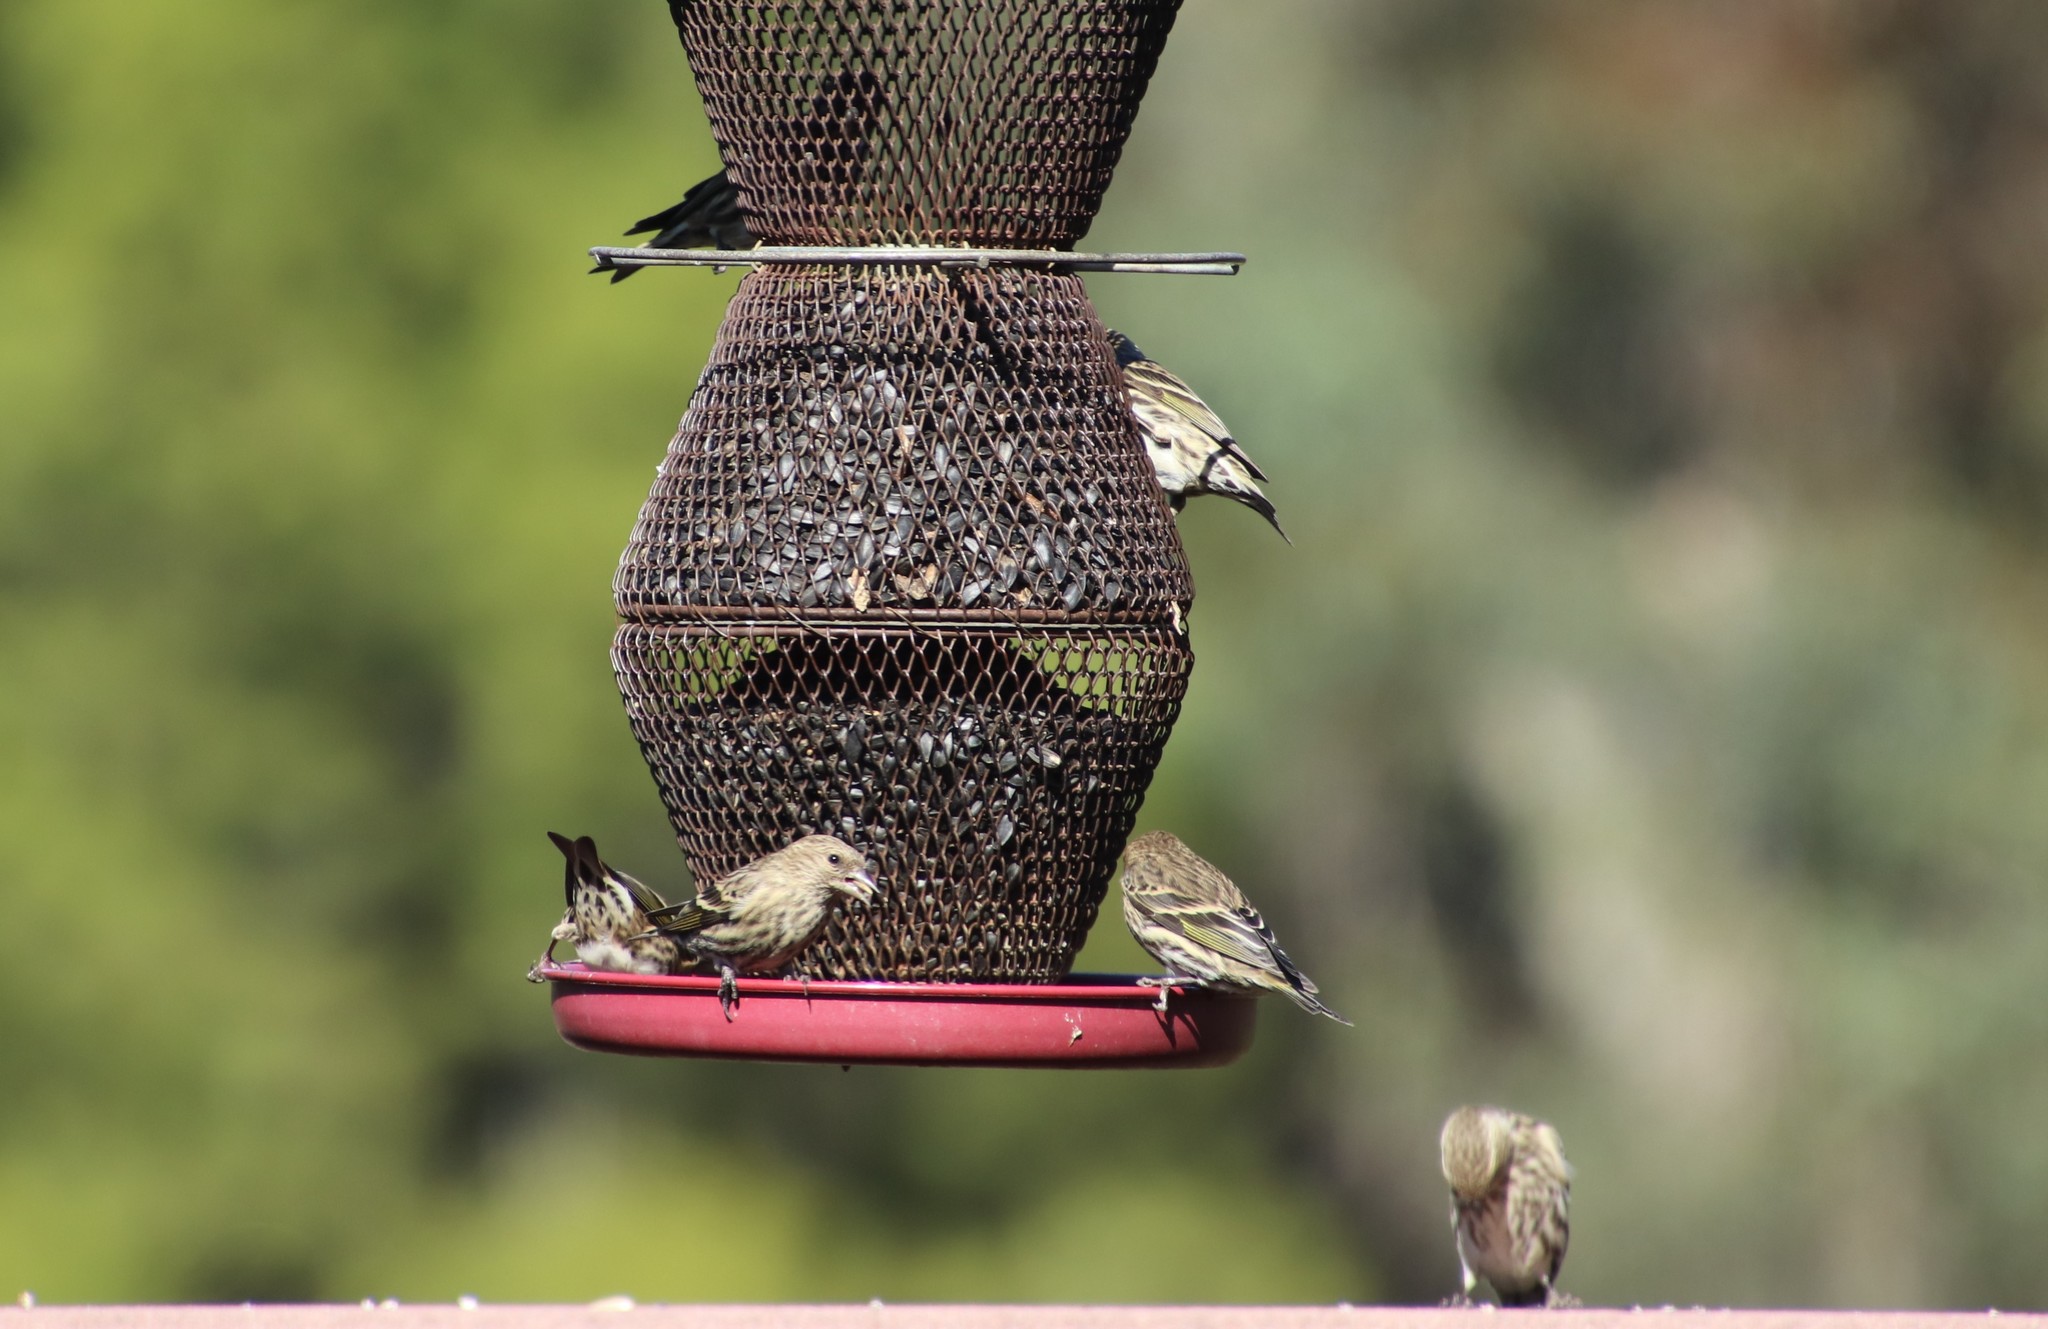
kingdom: Animalia
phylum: Chordata
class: Aves
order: Passeriformes
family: Fringillidae
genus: Spinus
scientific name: Spinus pinus
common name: Pine siskin
